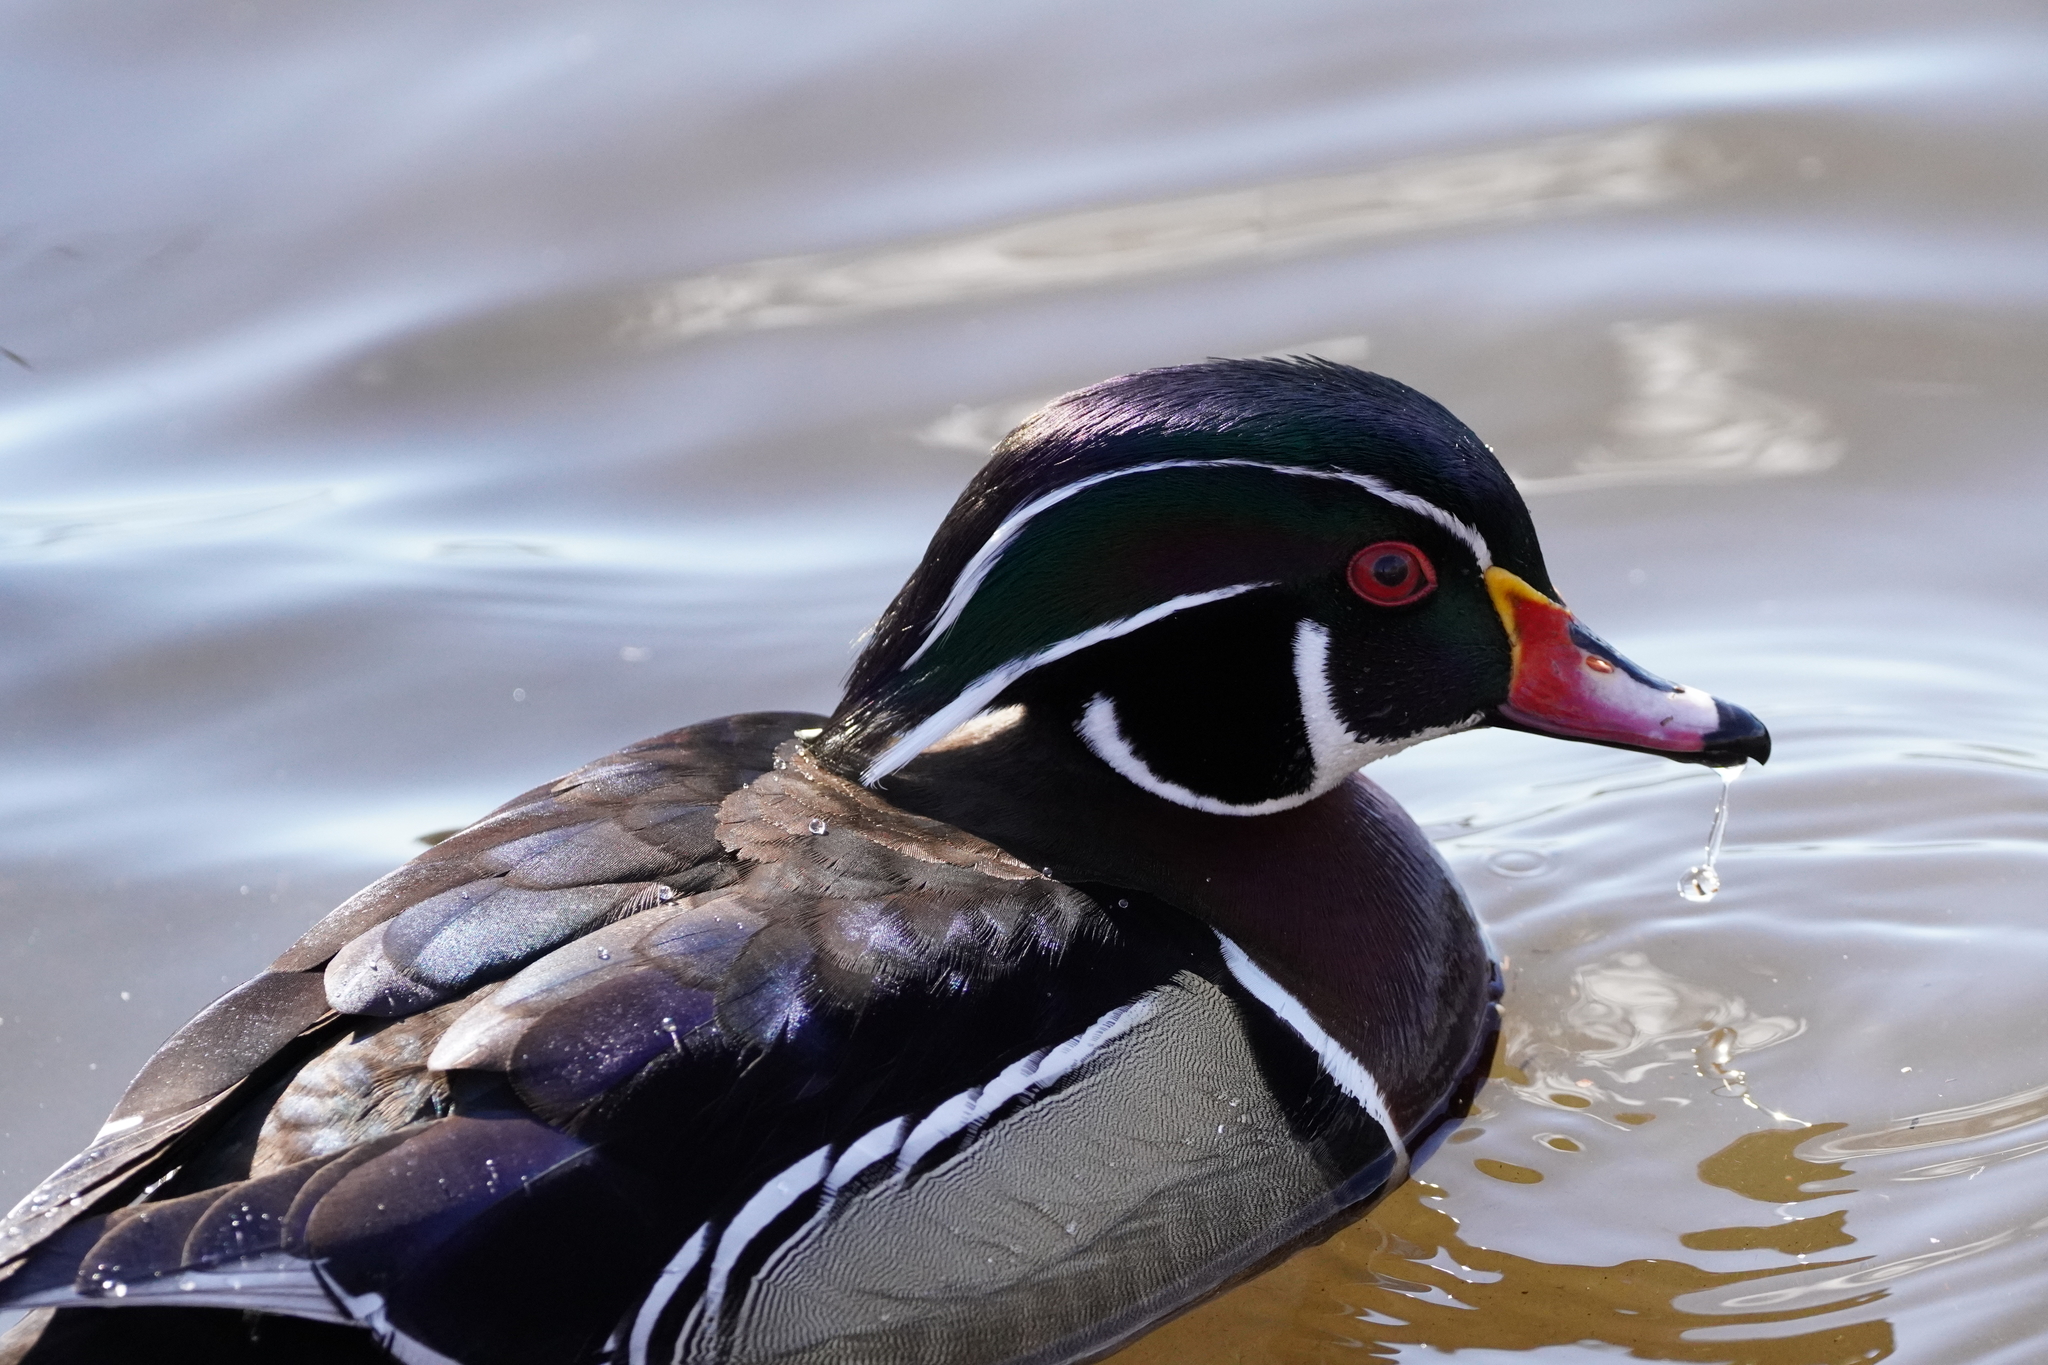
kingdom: Animalia
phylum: Chordata
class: Aves
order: Anseriformes
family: Anatidae
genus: Aix
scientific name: Aix sponsa
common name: Wood duck
